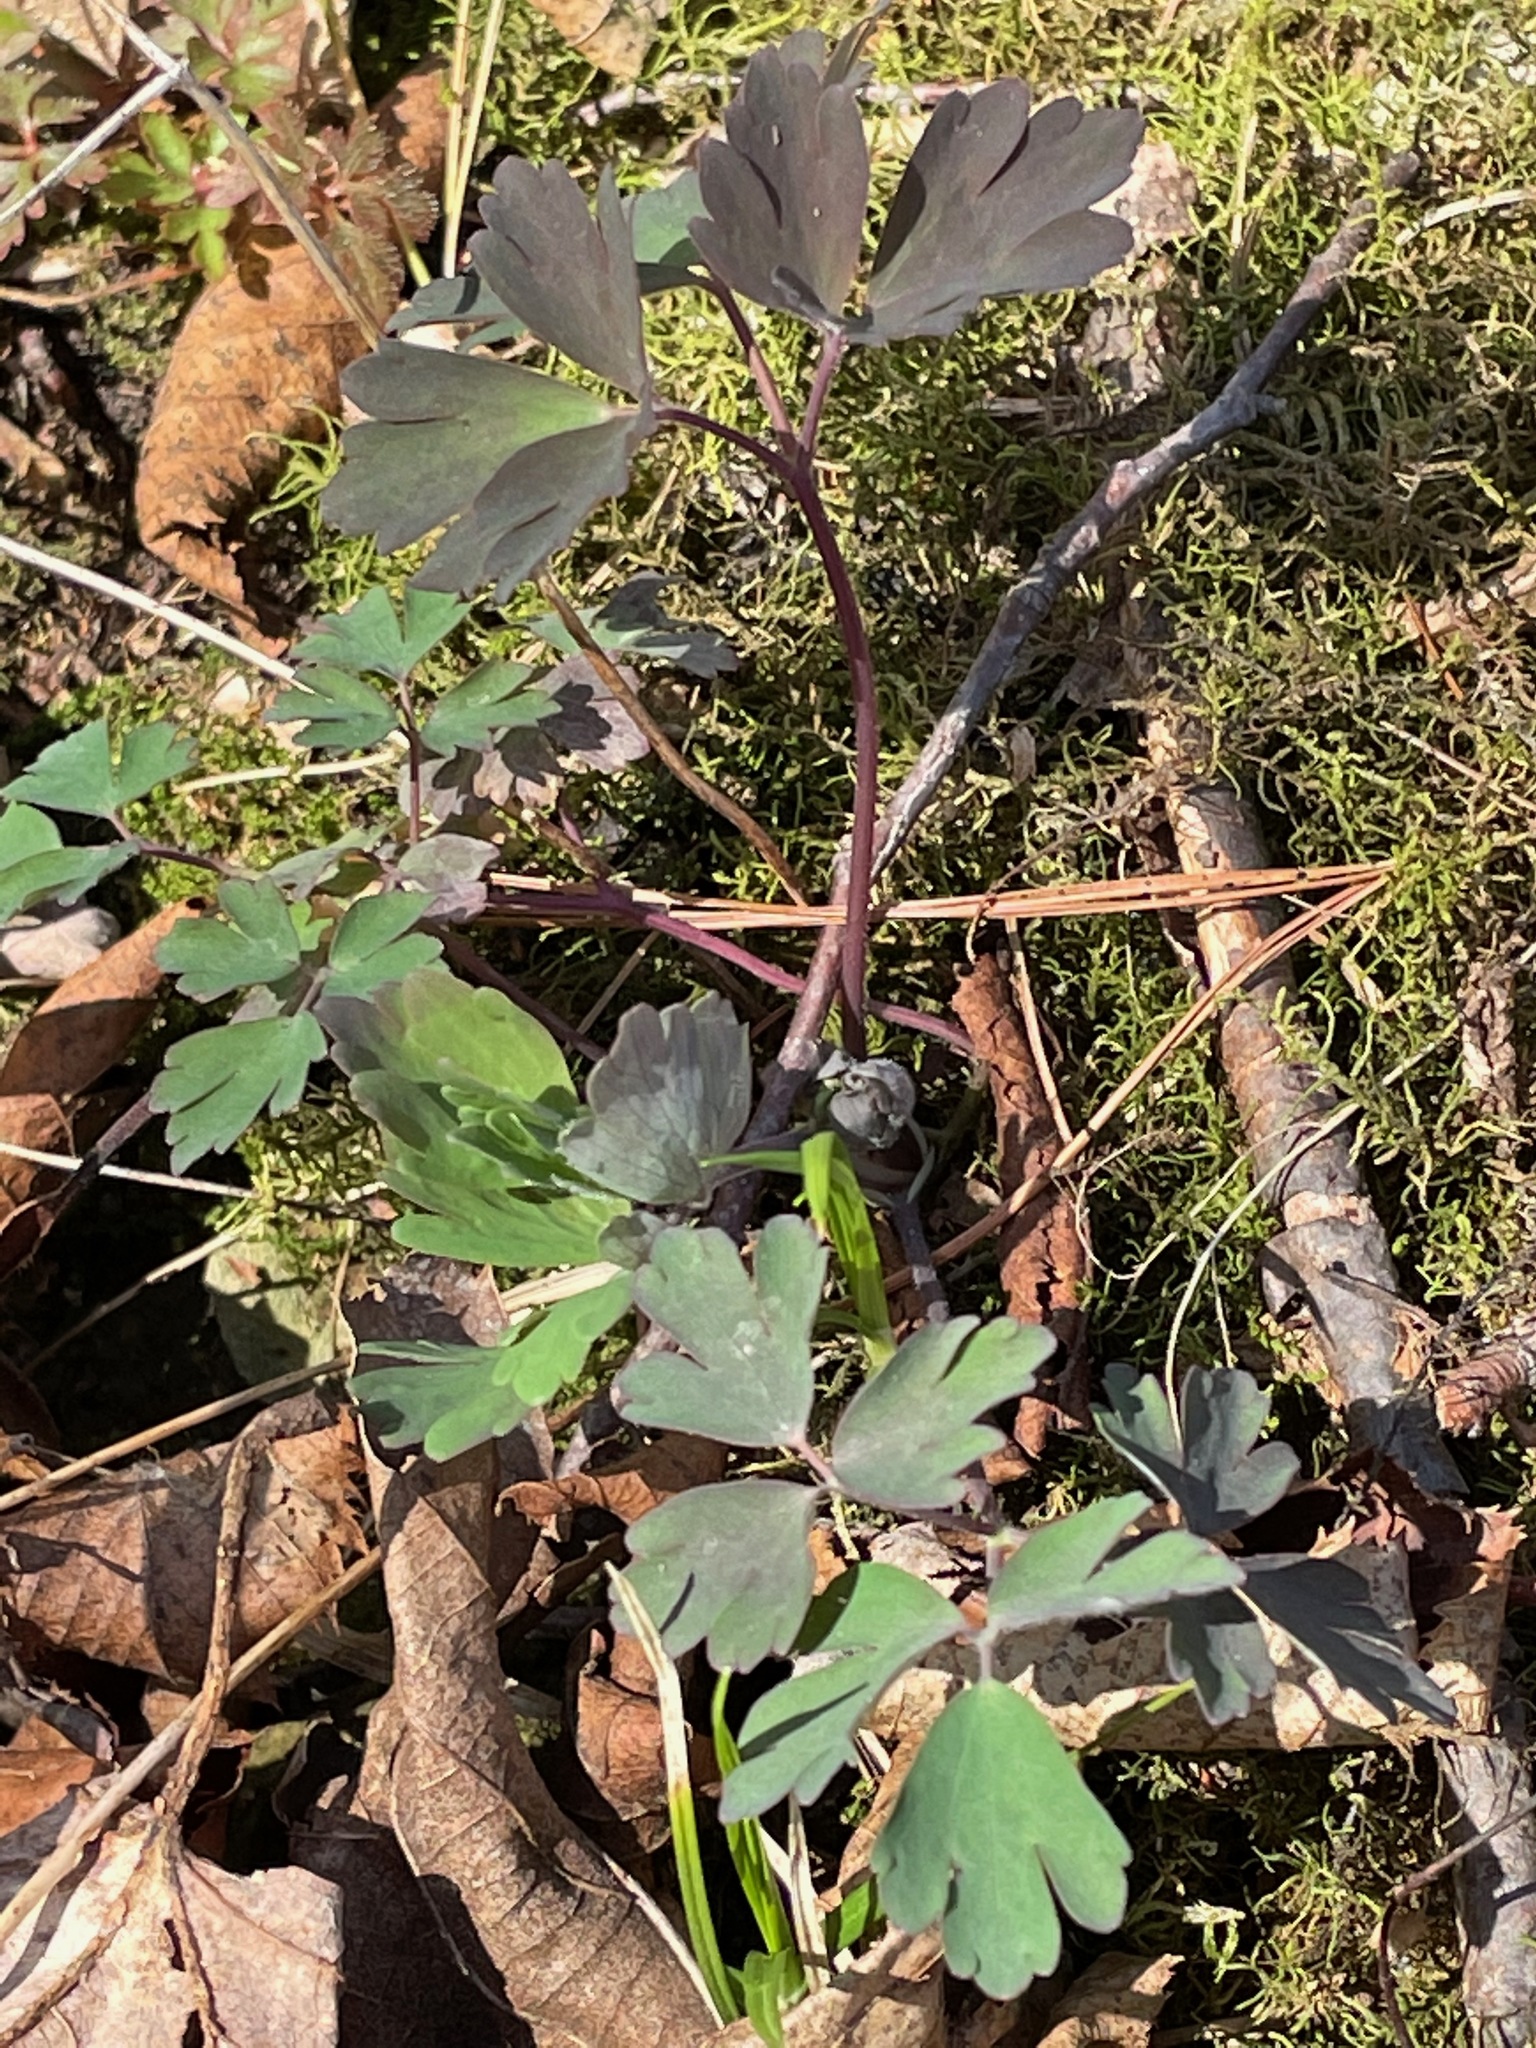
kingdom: Plantae
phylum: Tracheophyta
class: Magnoliopsida
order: Ranunculales
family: Ranunculaceae
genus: Aquilegia
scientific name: Aquilegia canadensis
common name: American columbine
